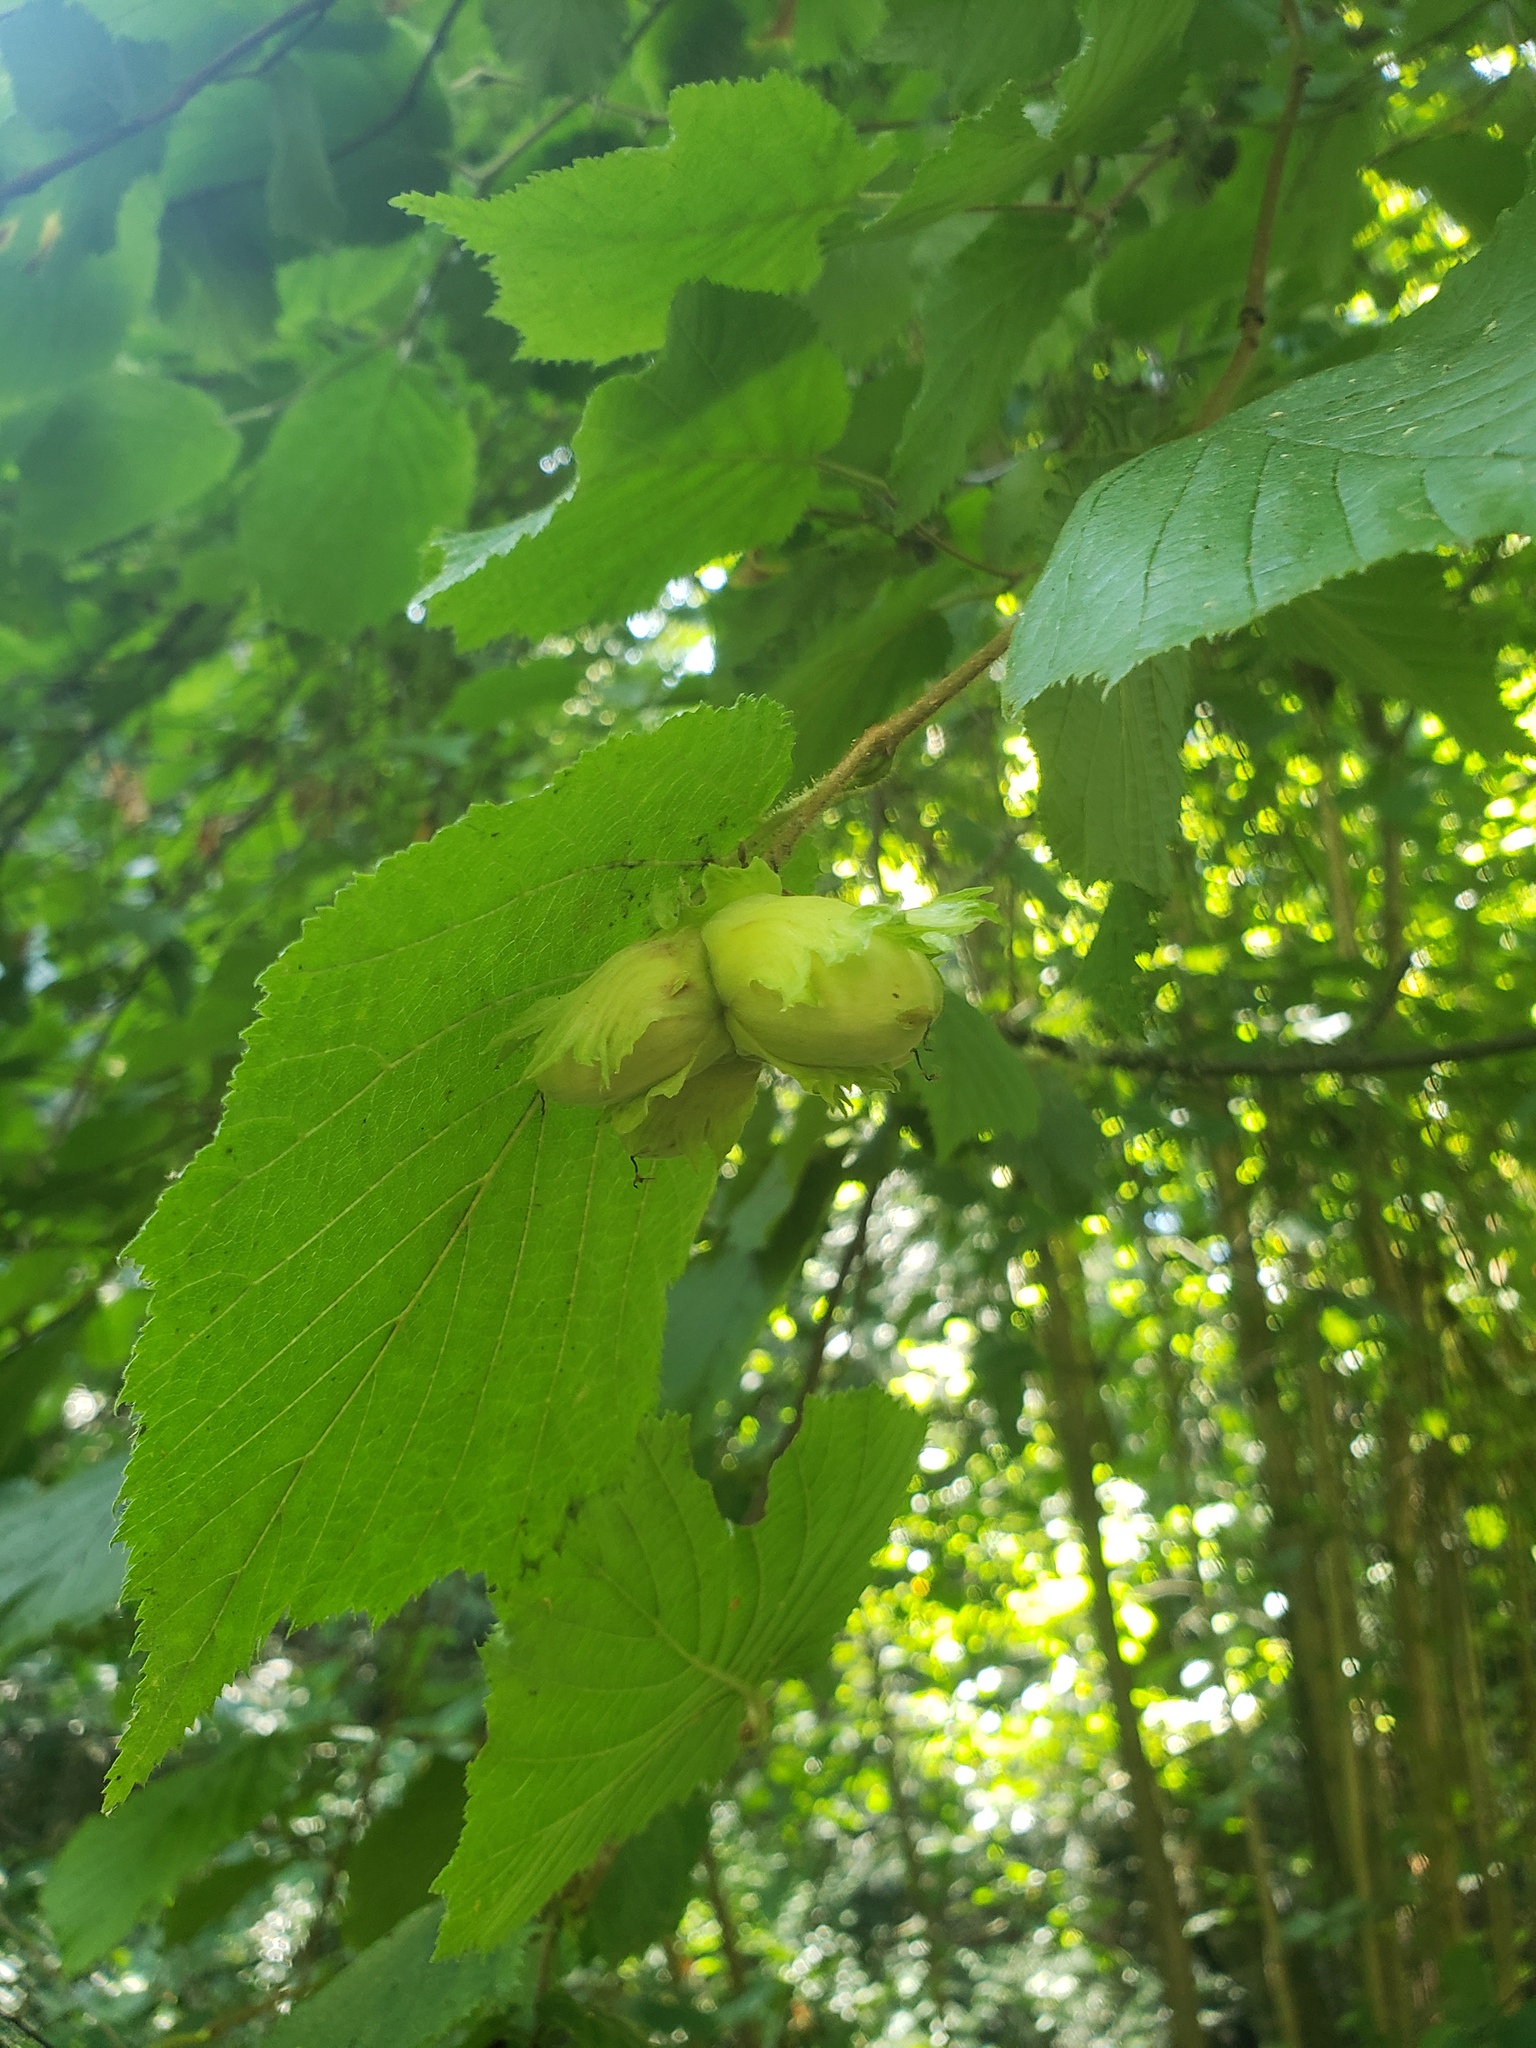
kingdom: Plantae
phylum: Tracheophyta
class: Magnoliopsida
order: Fagales
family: Betulaceae
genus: Corylus
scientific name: Corylus avellana
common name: European hazel
